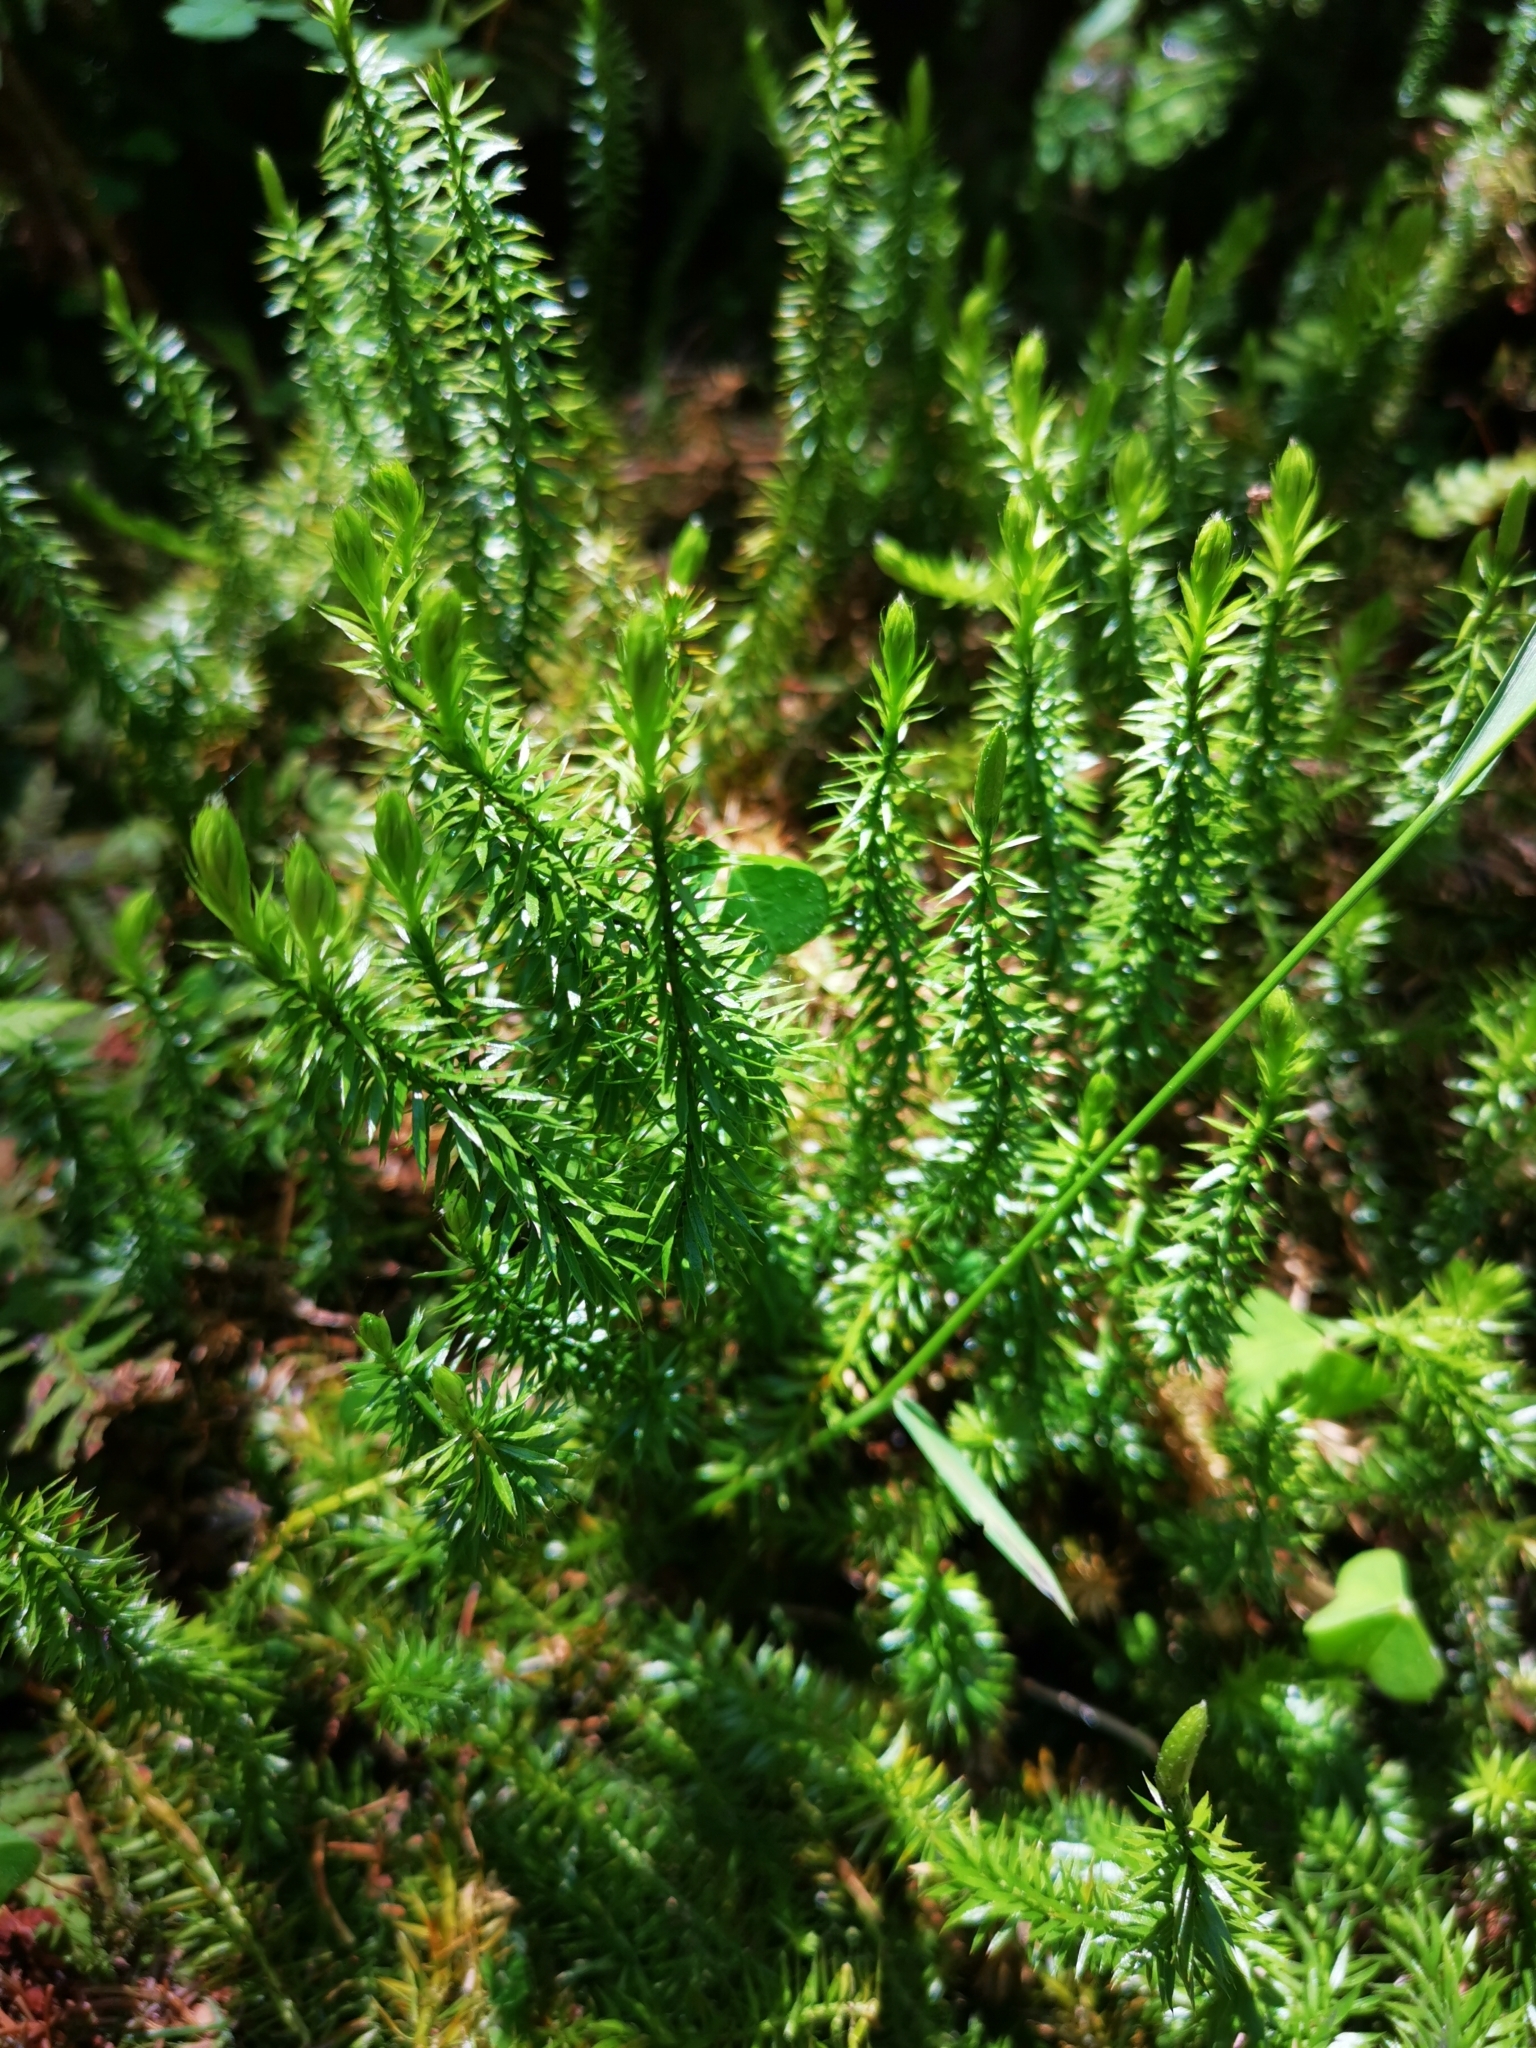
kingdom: Plantae
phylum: Tracheophyta
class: Lycopodiopsida
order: Lycopodiales
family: Lycopodiaceae
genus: Spinulum
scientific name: Spinulum annotinum
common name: Interrupted club-moss
